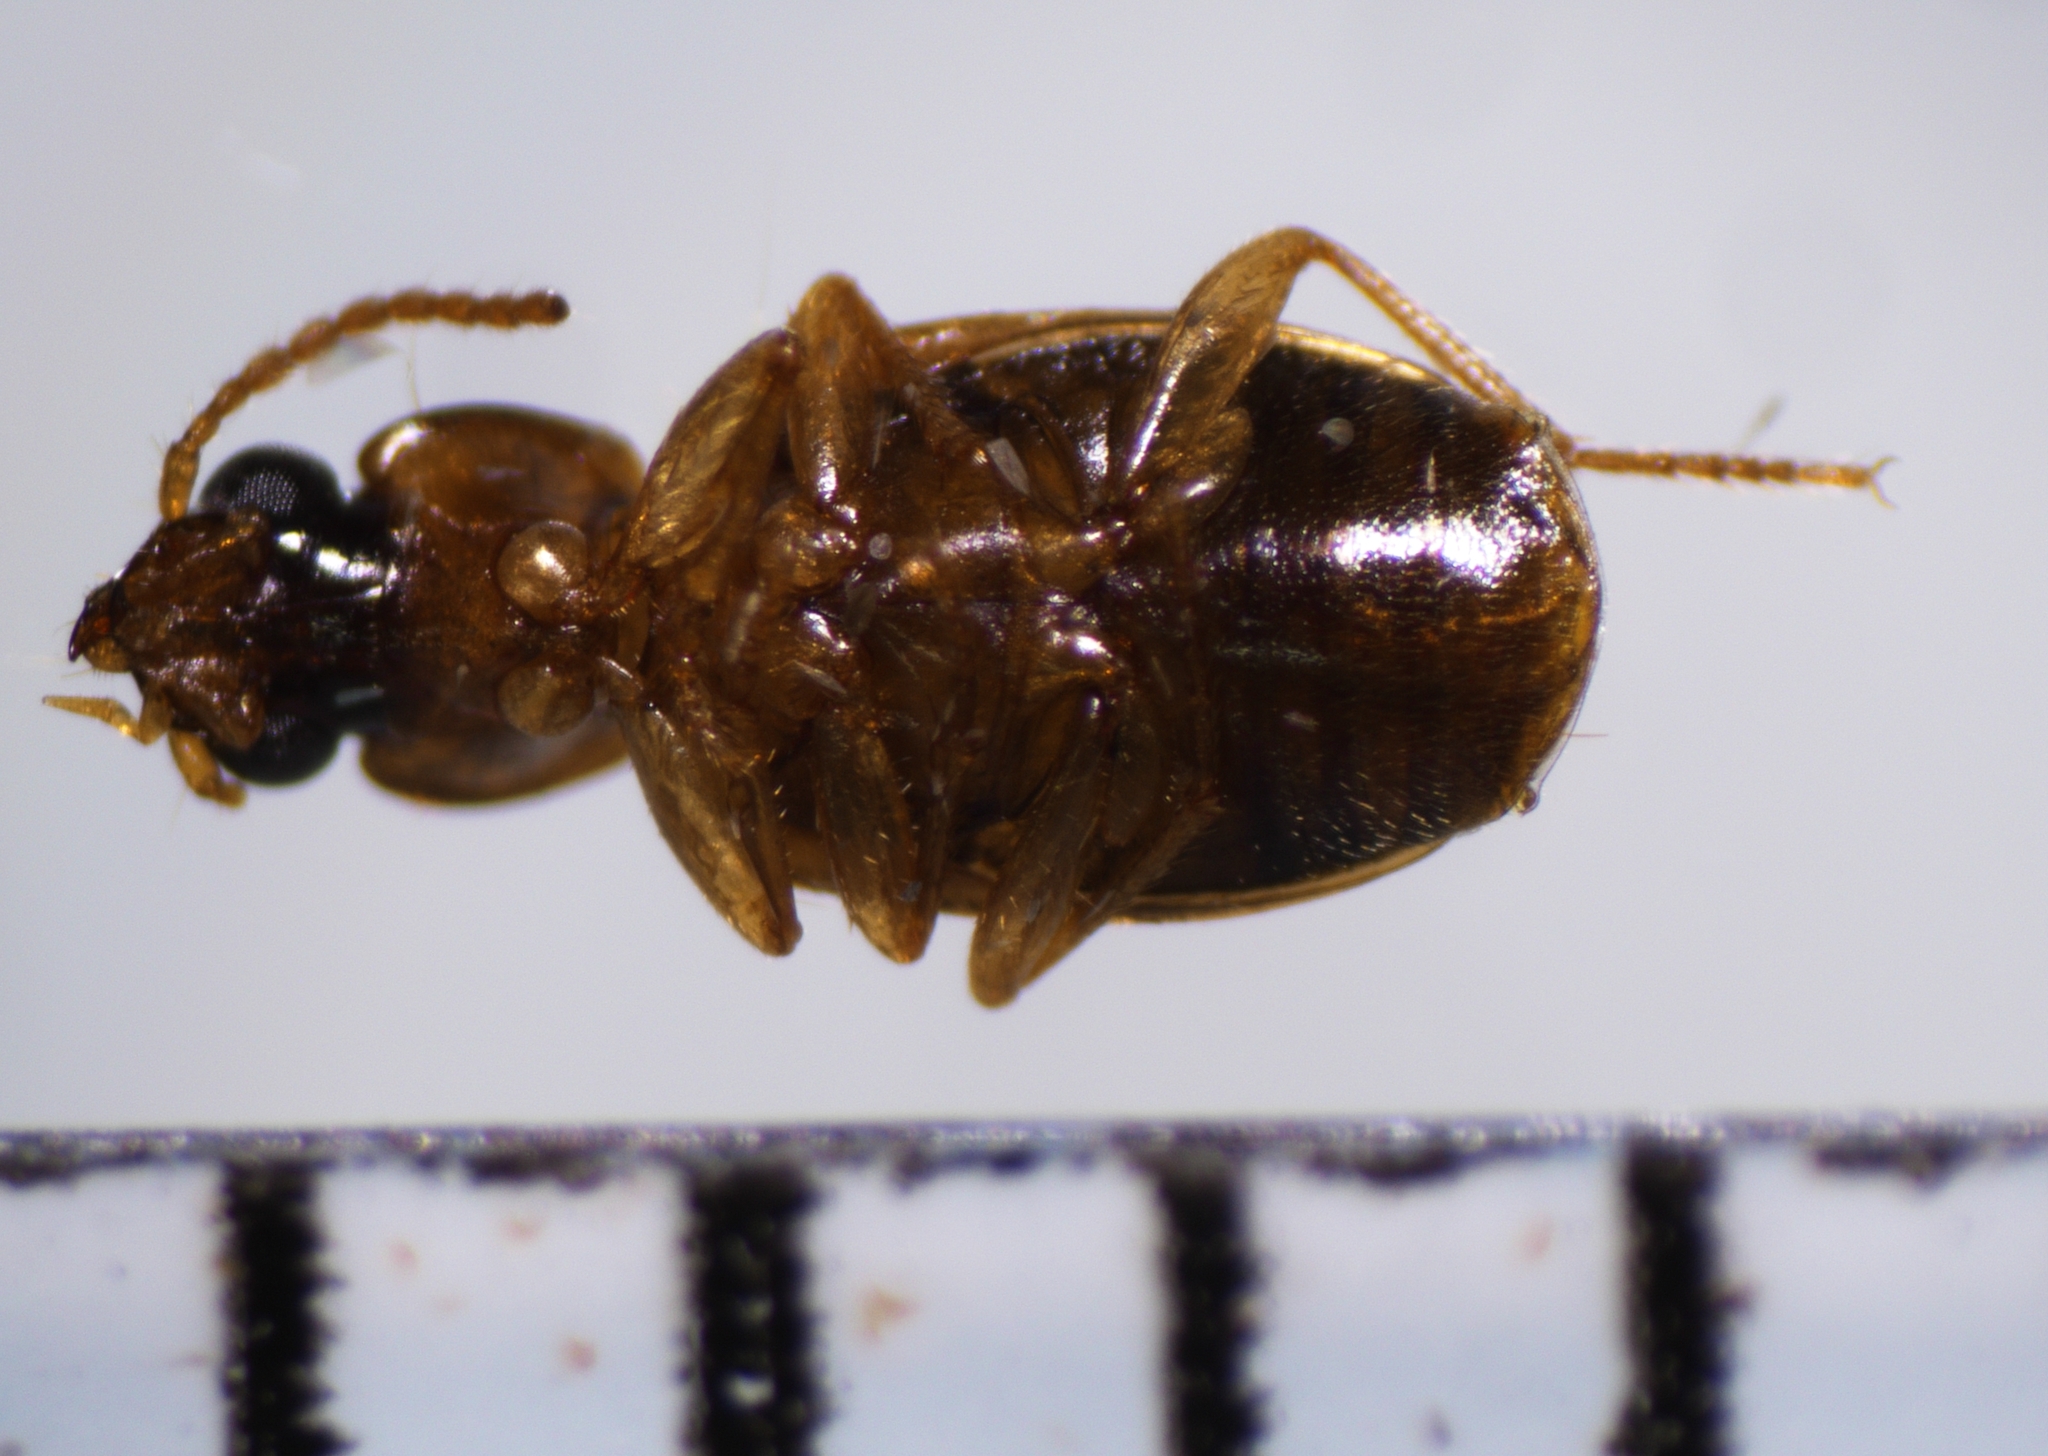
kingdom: Animalia
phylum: Arthropoda
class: Insecta
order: Coleoptera
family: Carabidae
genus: Perigona
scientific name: Perigona nigriceps
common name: Tawny harp ground beetle
